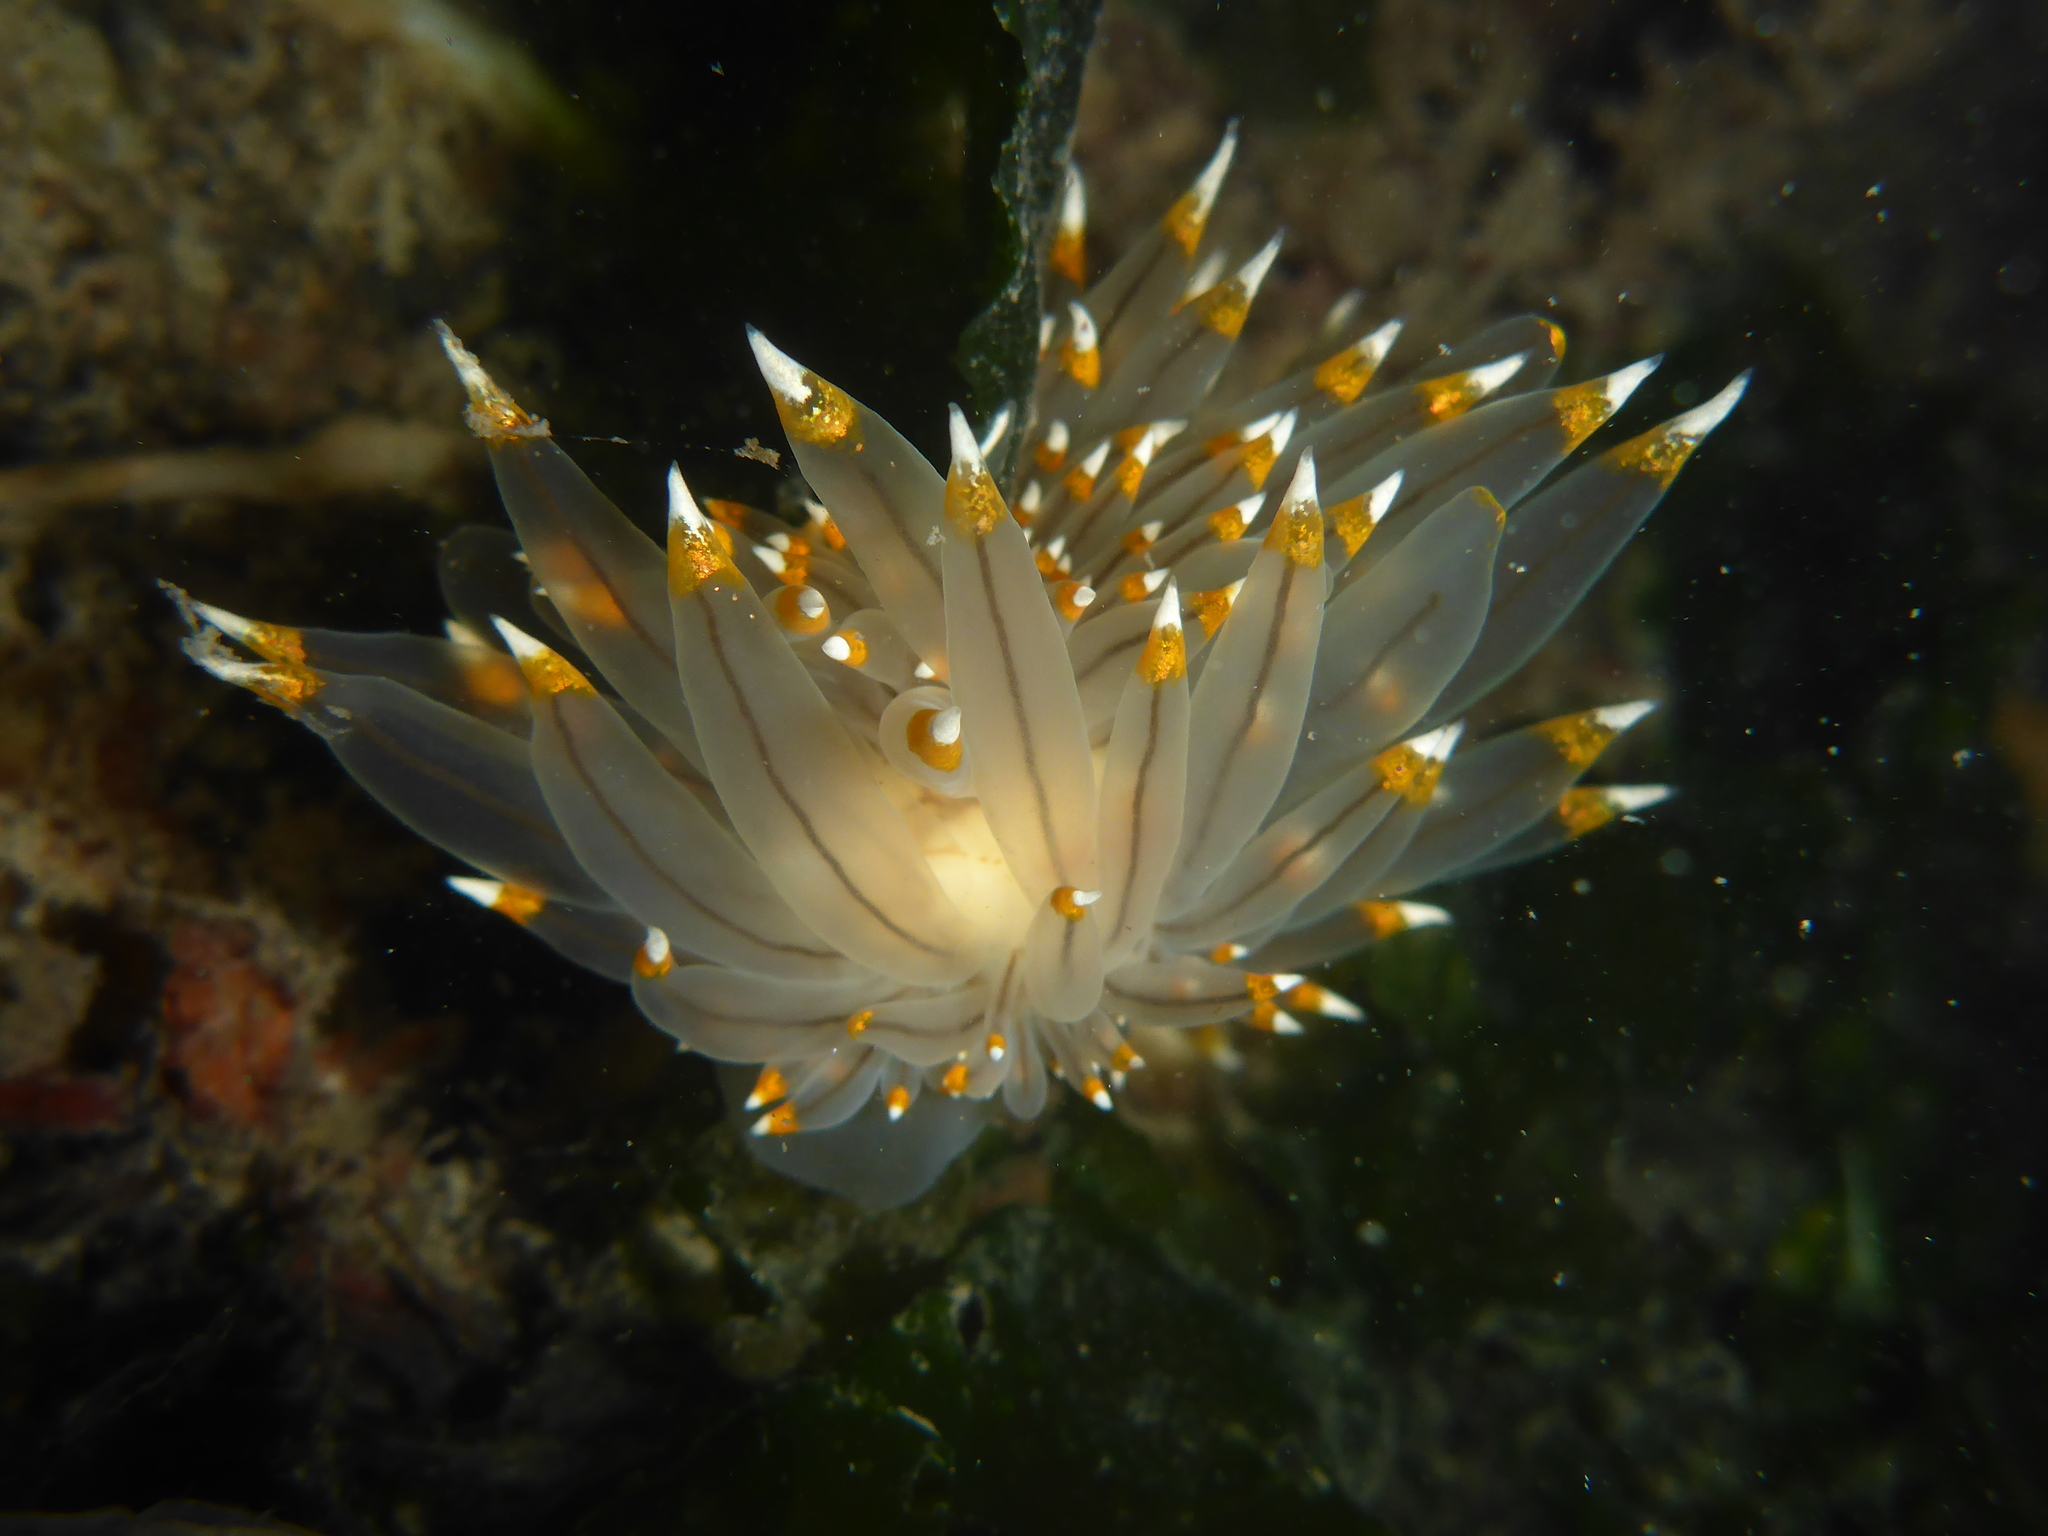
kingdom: Animalia
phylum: Mollusca
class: Gastropoda
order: Nudibranchia
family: Janolidae
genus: Antiopella
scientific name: Antiopella fusca
